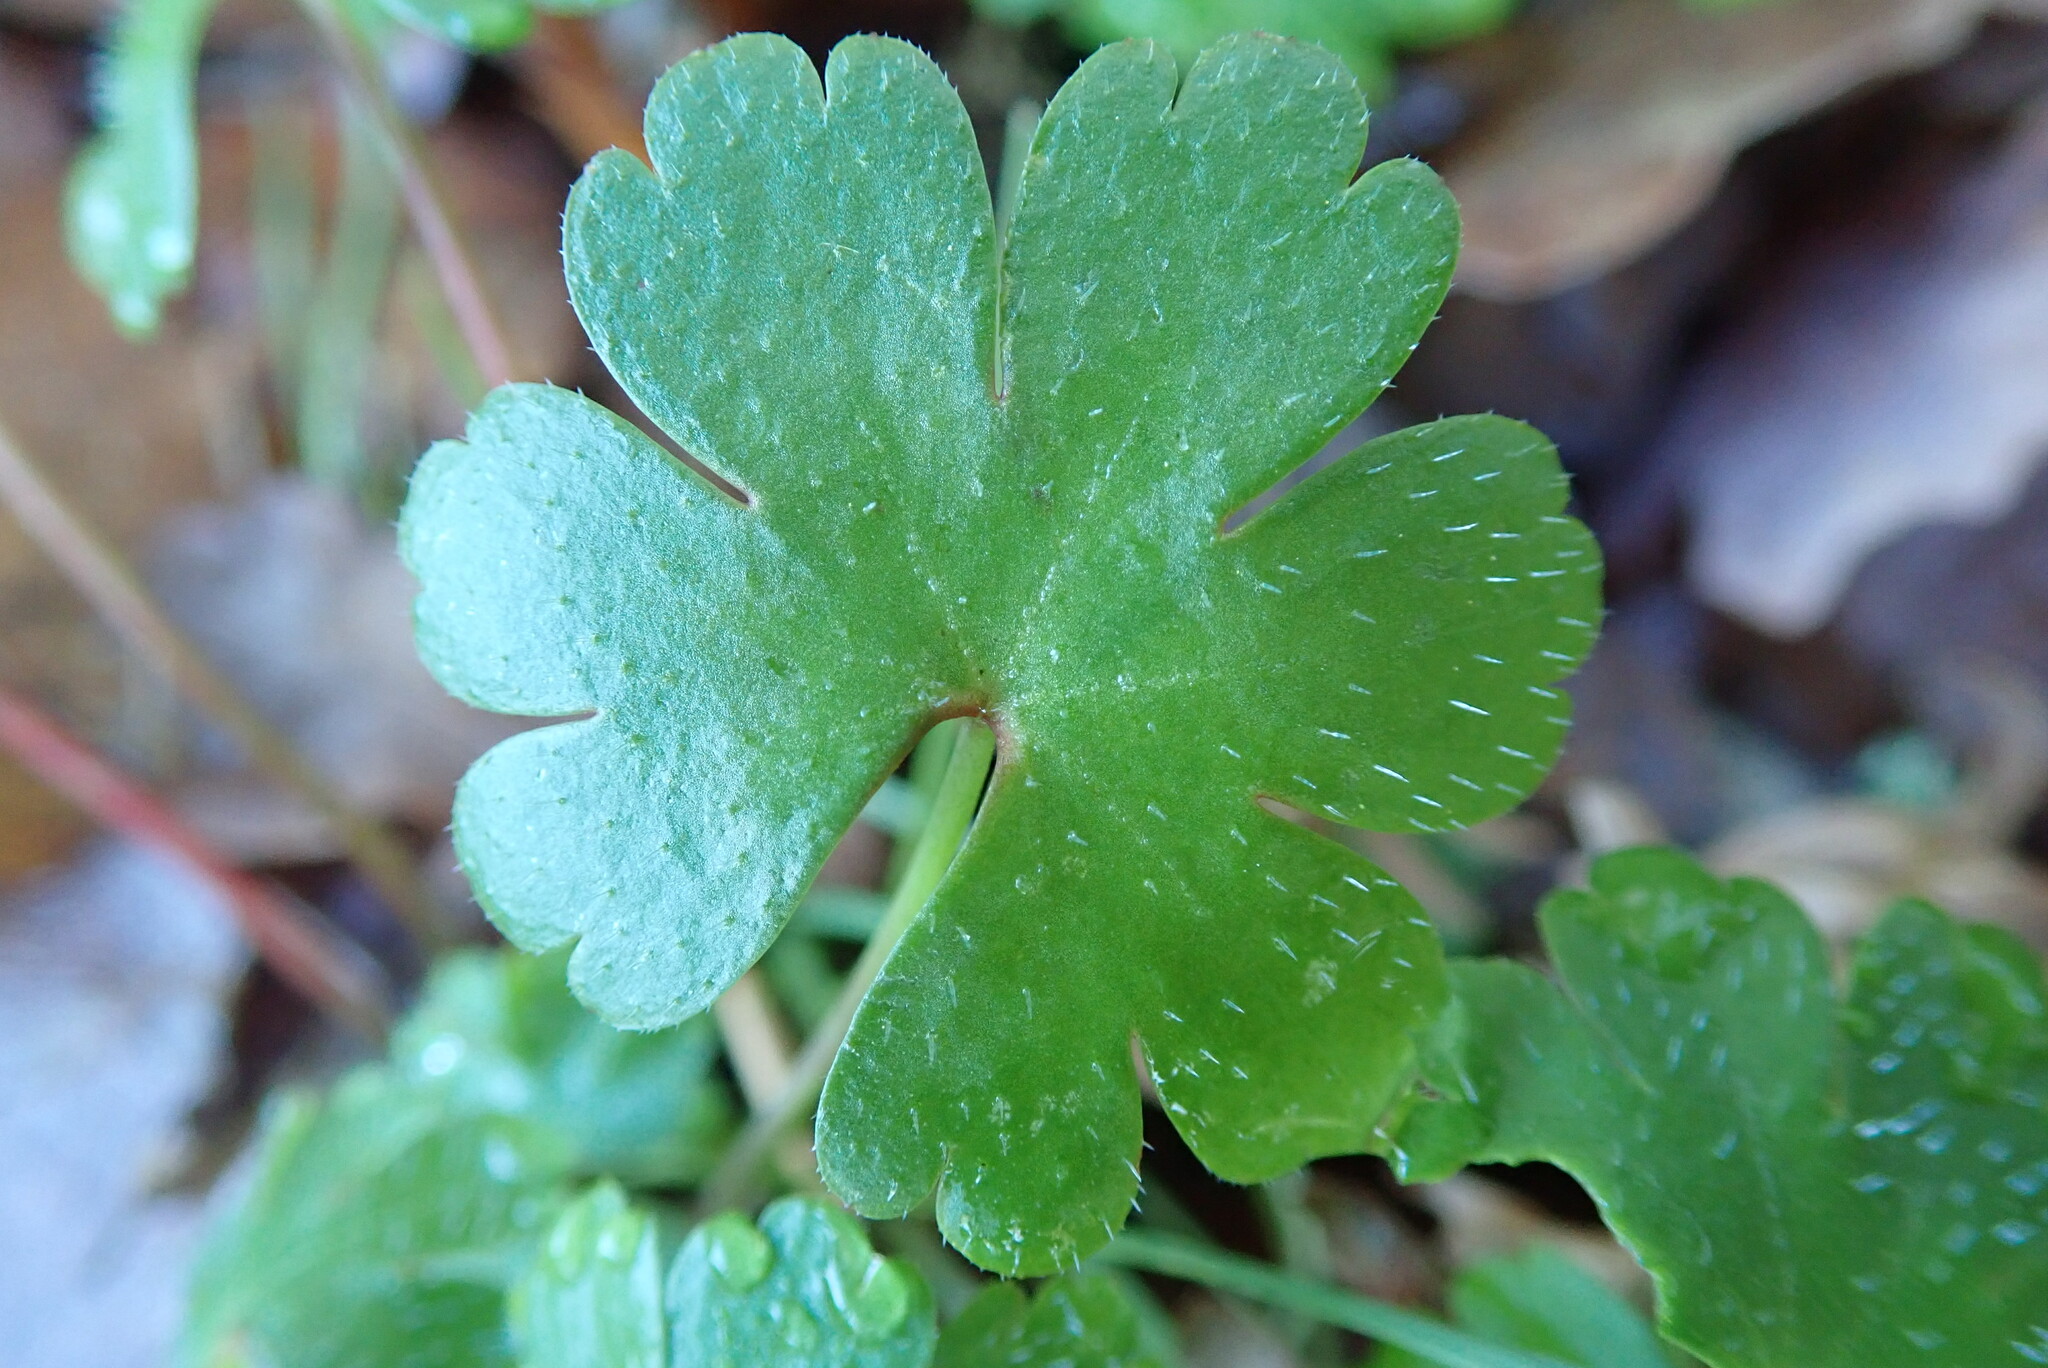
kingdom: Plantae
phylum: Tracheophyta
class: Magnoliopsida
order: Geraniales
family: Geraniaceae
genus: Geranium
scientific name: Geranium lucidum
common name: Shining crane's-bill
